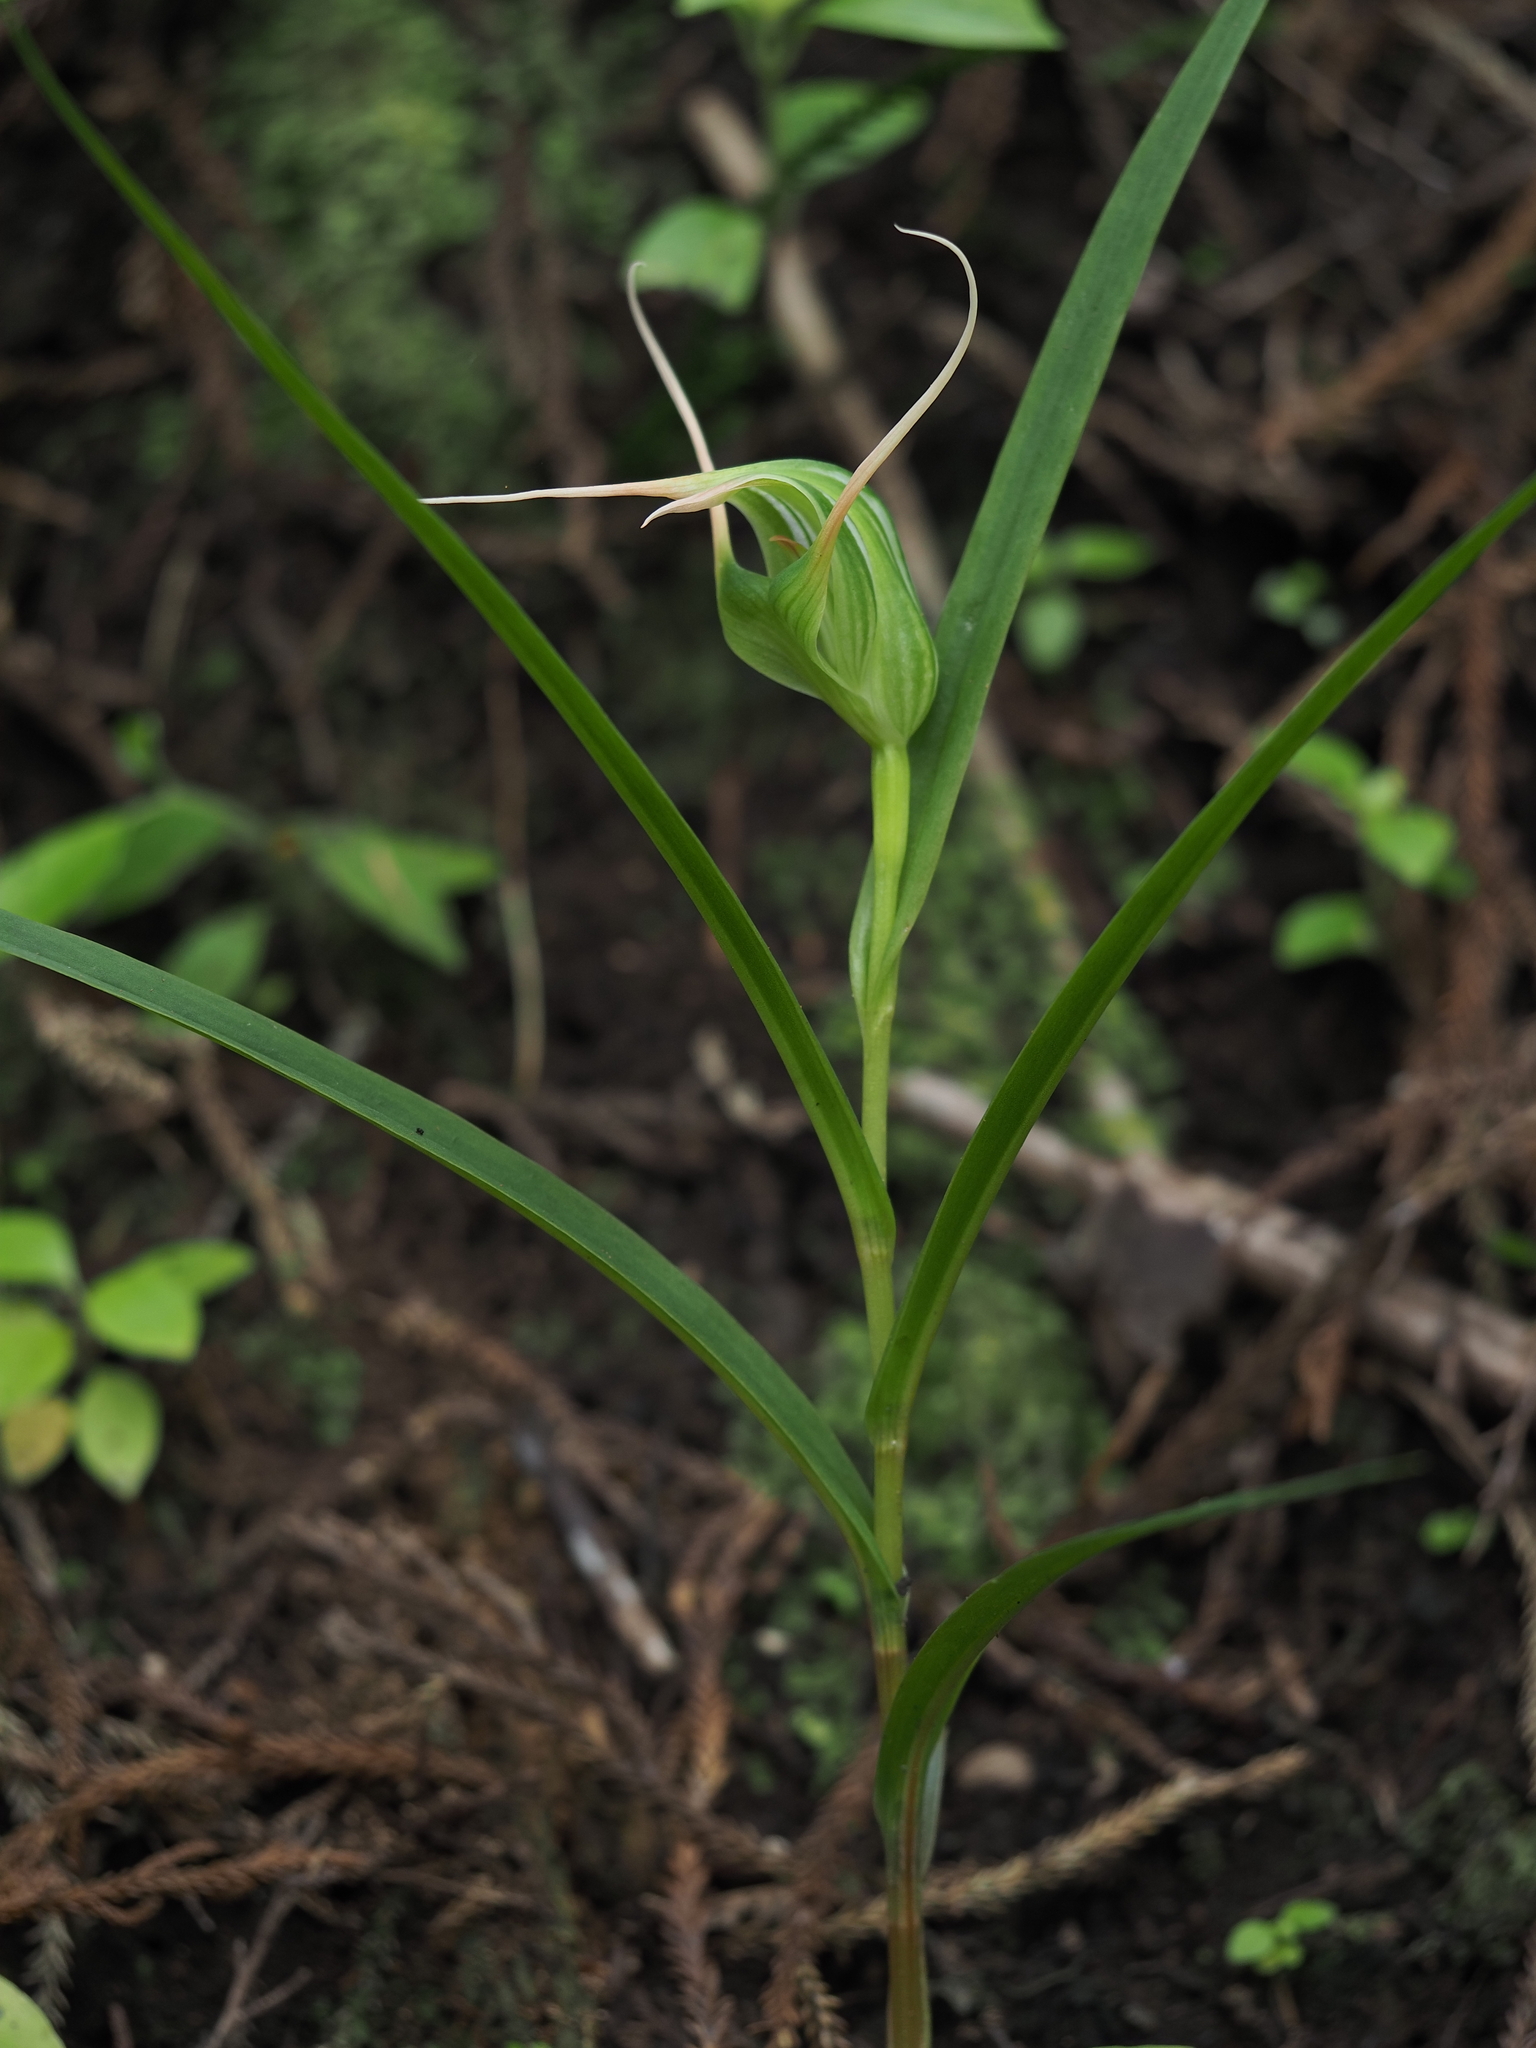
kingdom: Plantae
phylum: Tracheophyta
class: Liliopsida
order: Asparagales
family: Orchidaceae
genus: Pterostylis
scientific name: Pterostylis banksii
